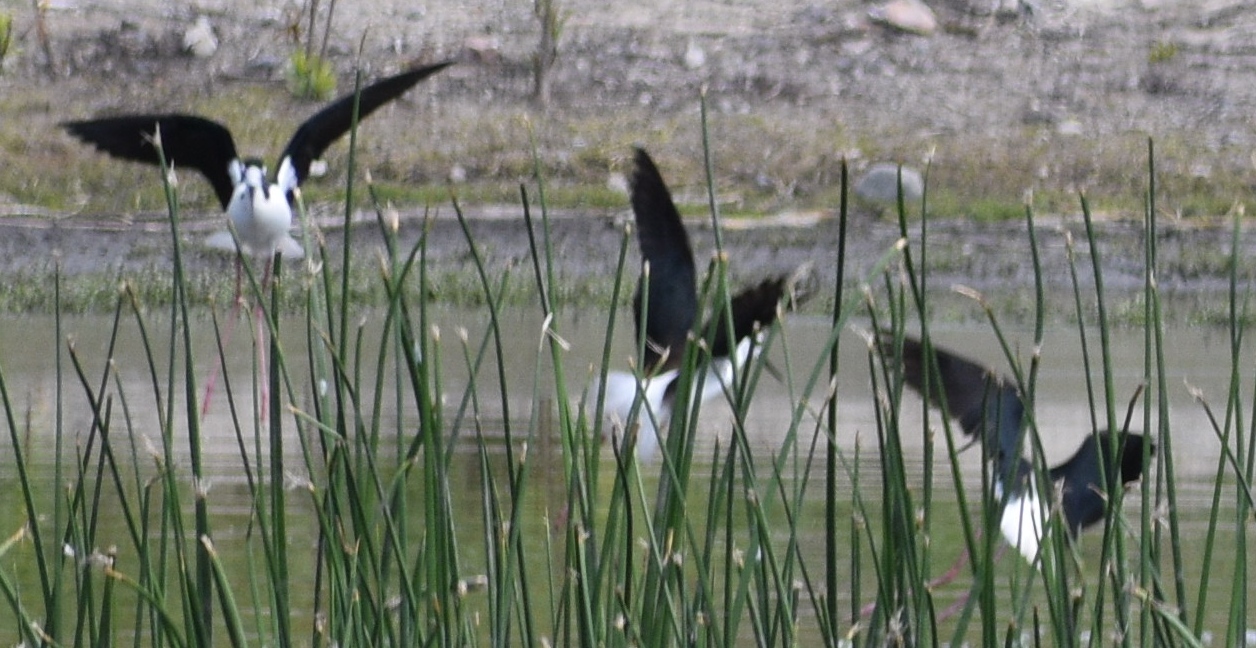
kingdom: Animalia
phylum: Chordata
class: Aves
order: Charadriiformes
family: Recurvirostridae
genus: Himantopus
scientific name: Himantopus mexicanus
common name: Black-necked stilt
